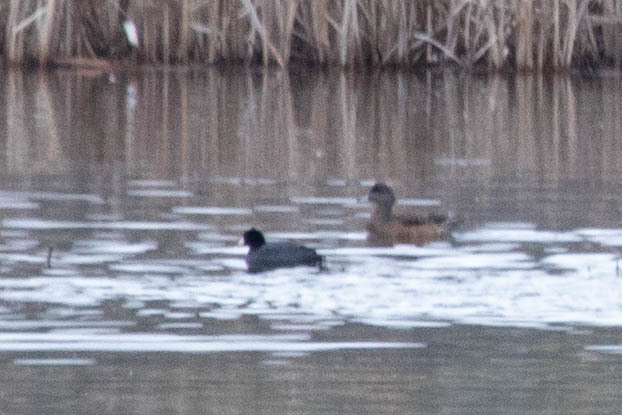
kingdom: Animalia
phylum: Chordata
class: Aves
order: Gruiformes
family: Rallidae
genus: Fulica
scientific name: Fulica americana
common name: American coot
